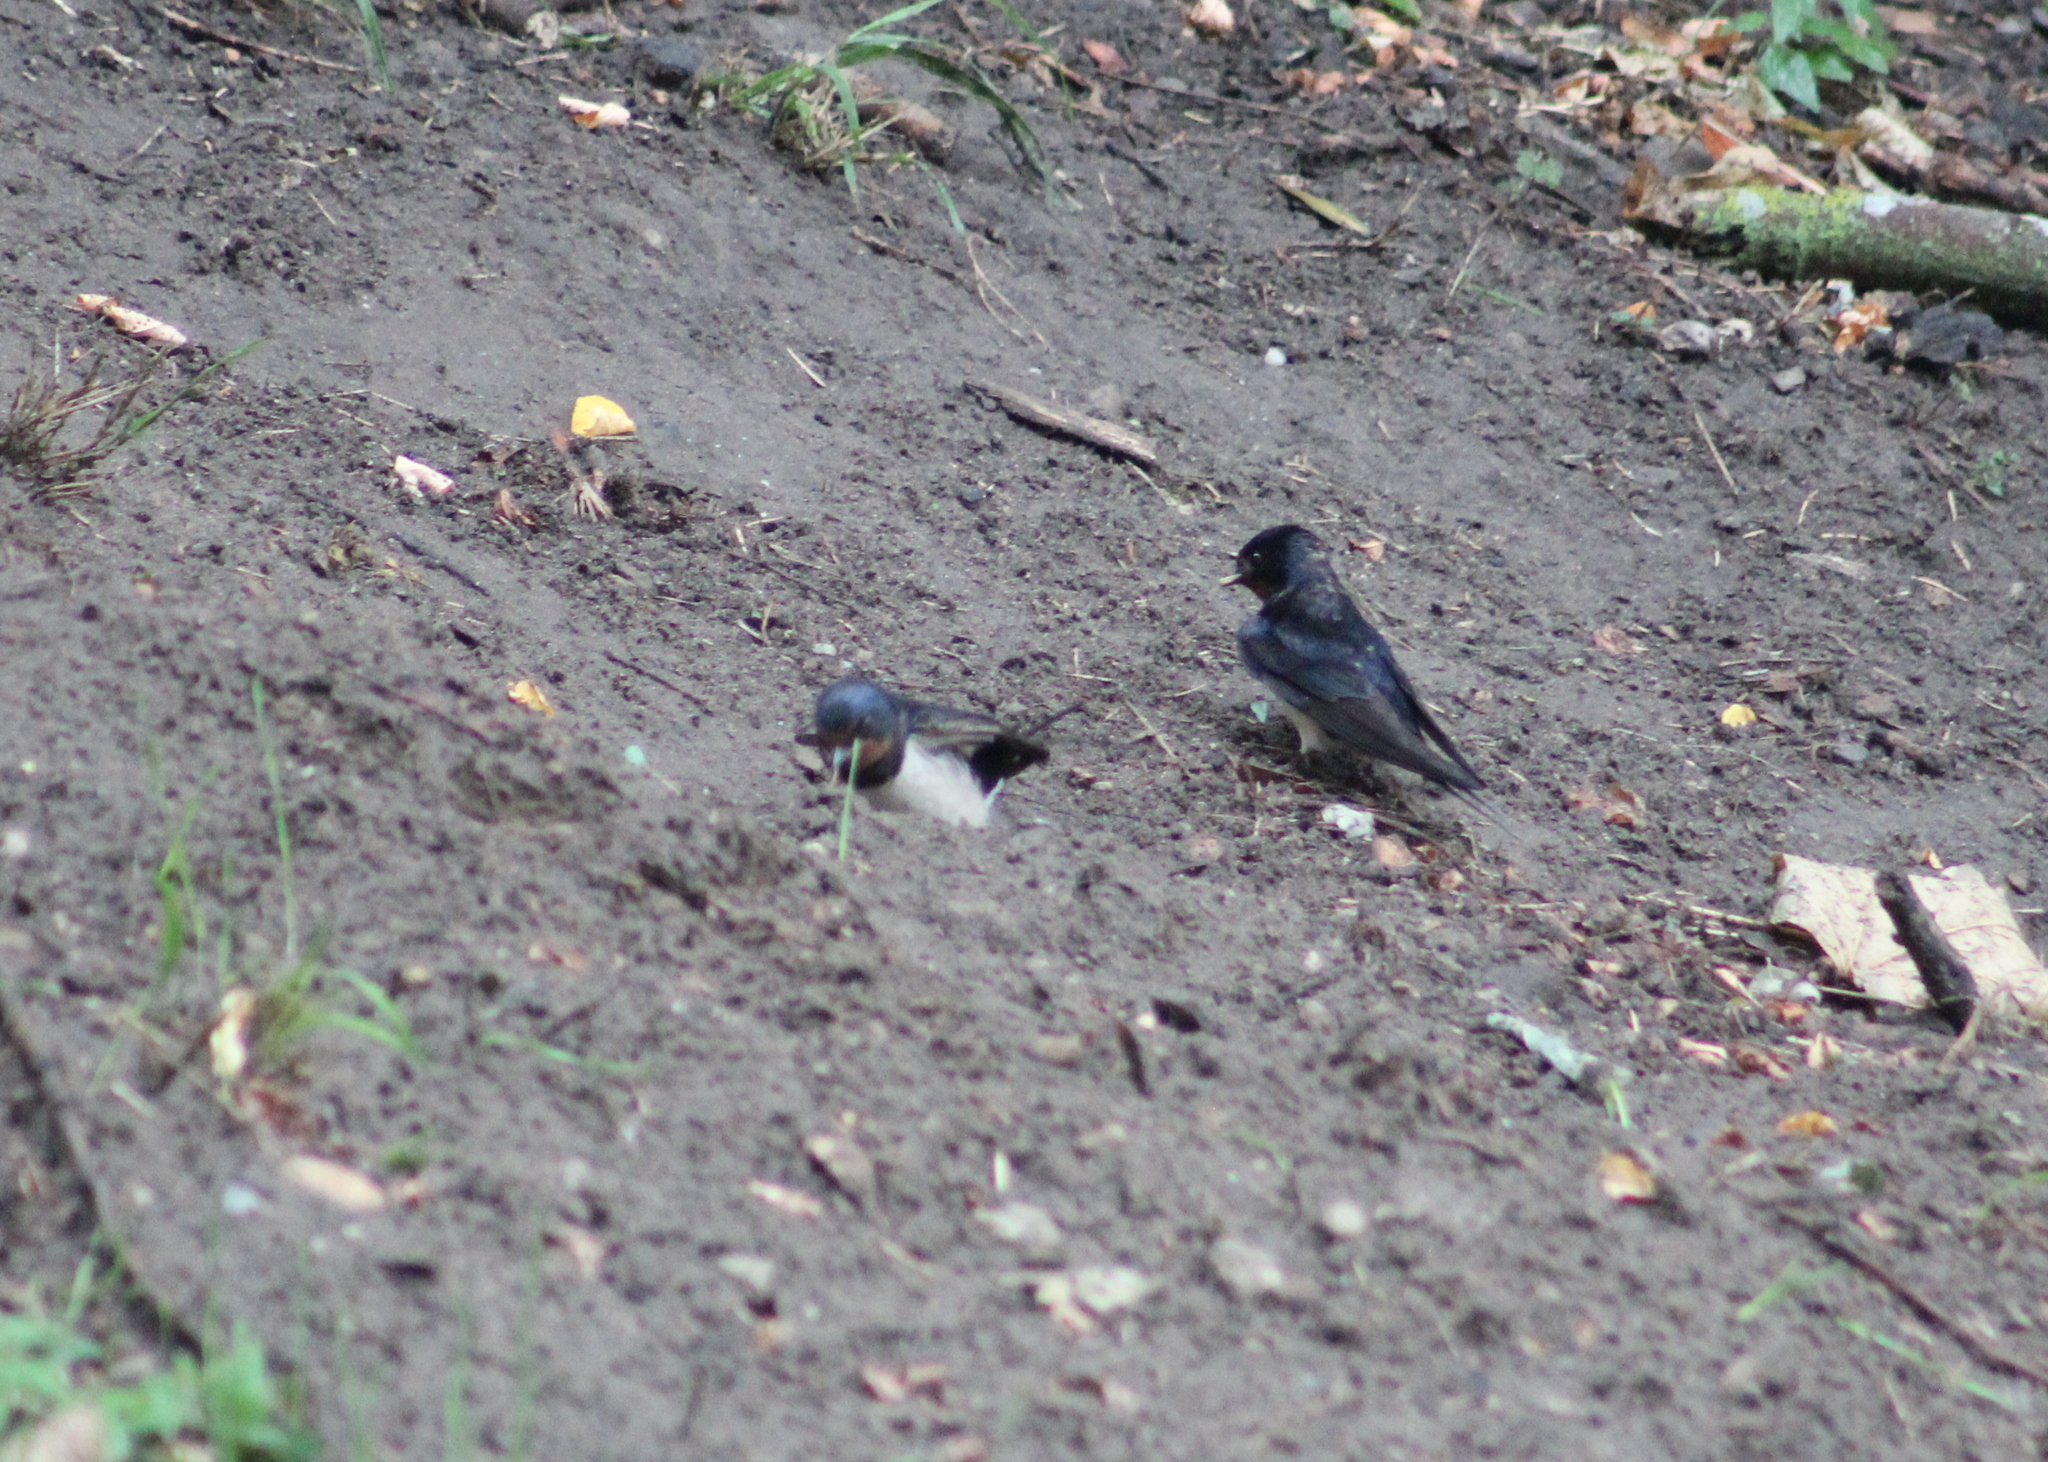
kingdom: Animalia
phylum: Chordata
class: Aves
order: Passeriformes
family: Hirundinidae
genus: Hirundo
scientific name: Hirundo rustica
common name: Barn swallow
